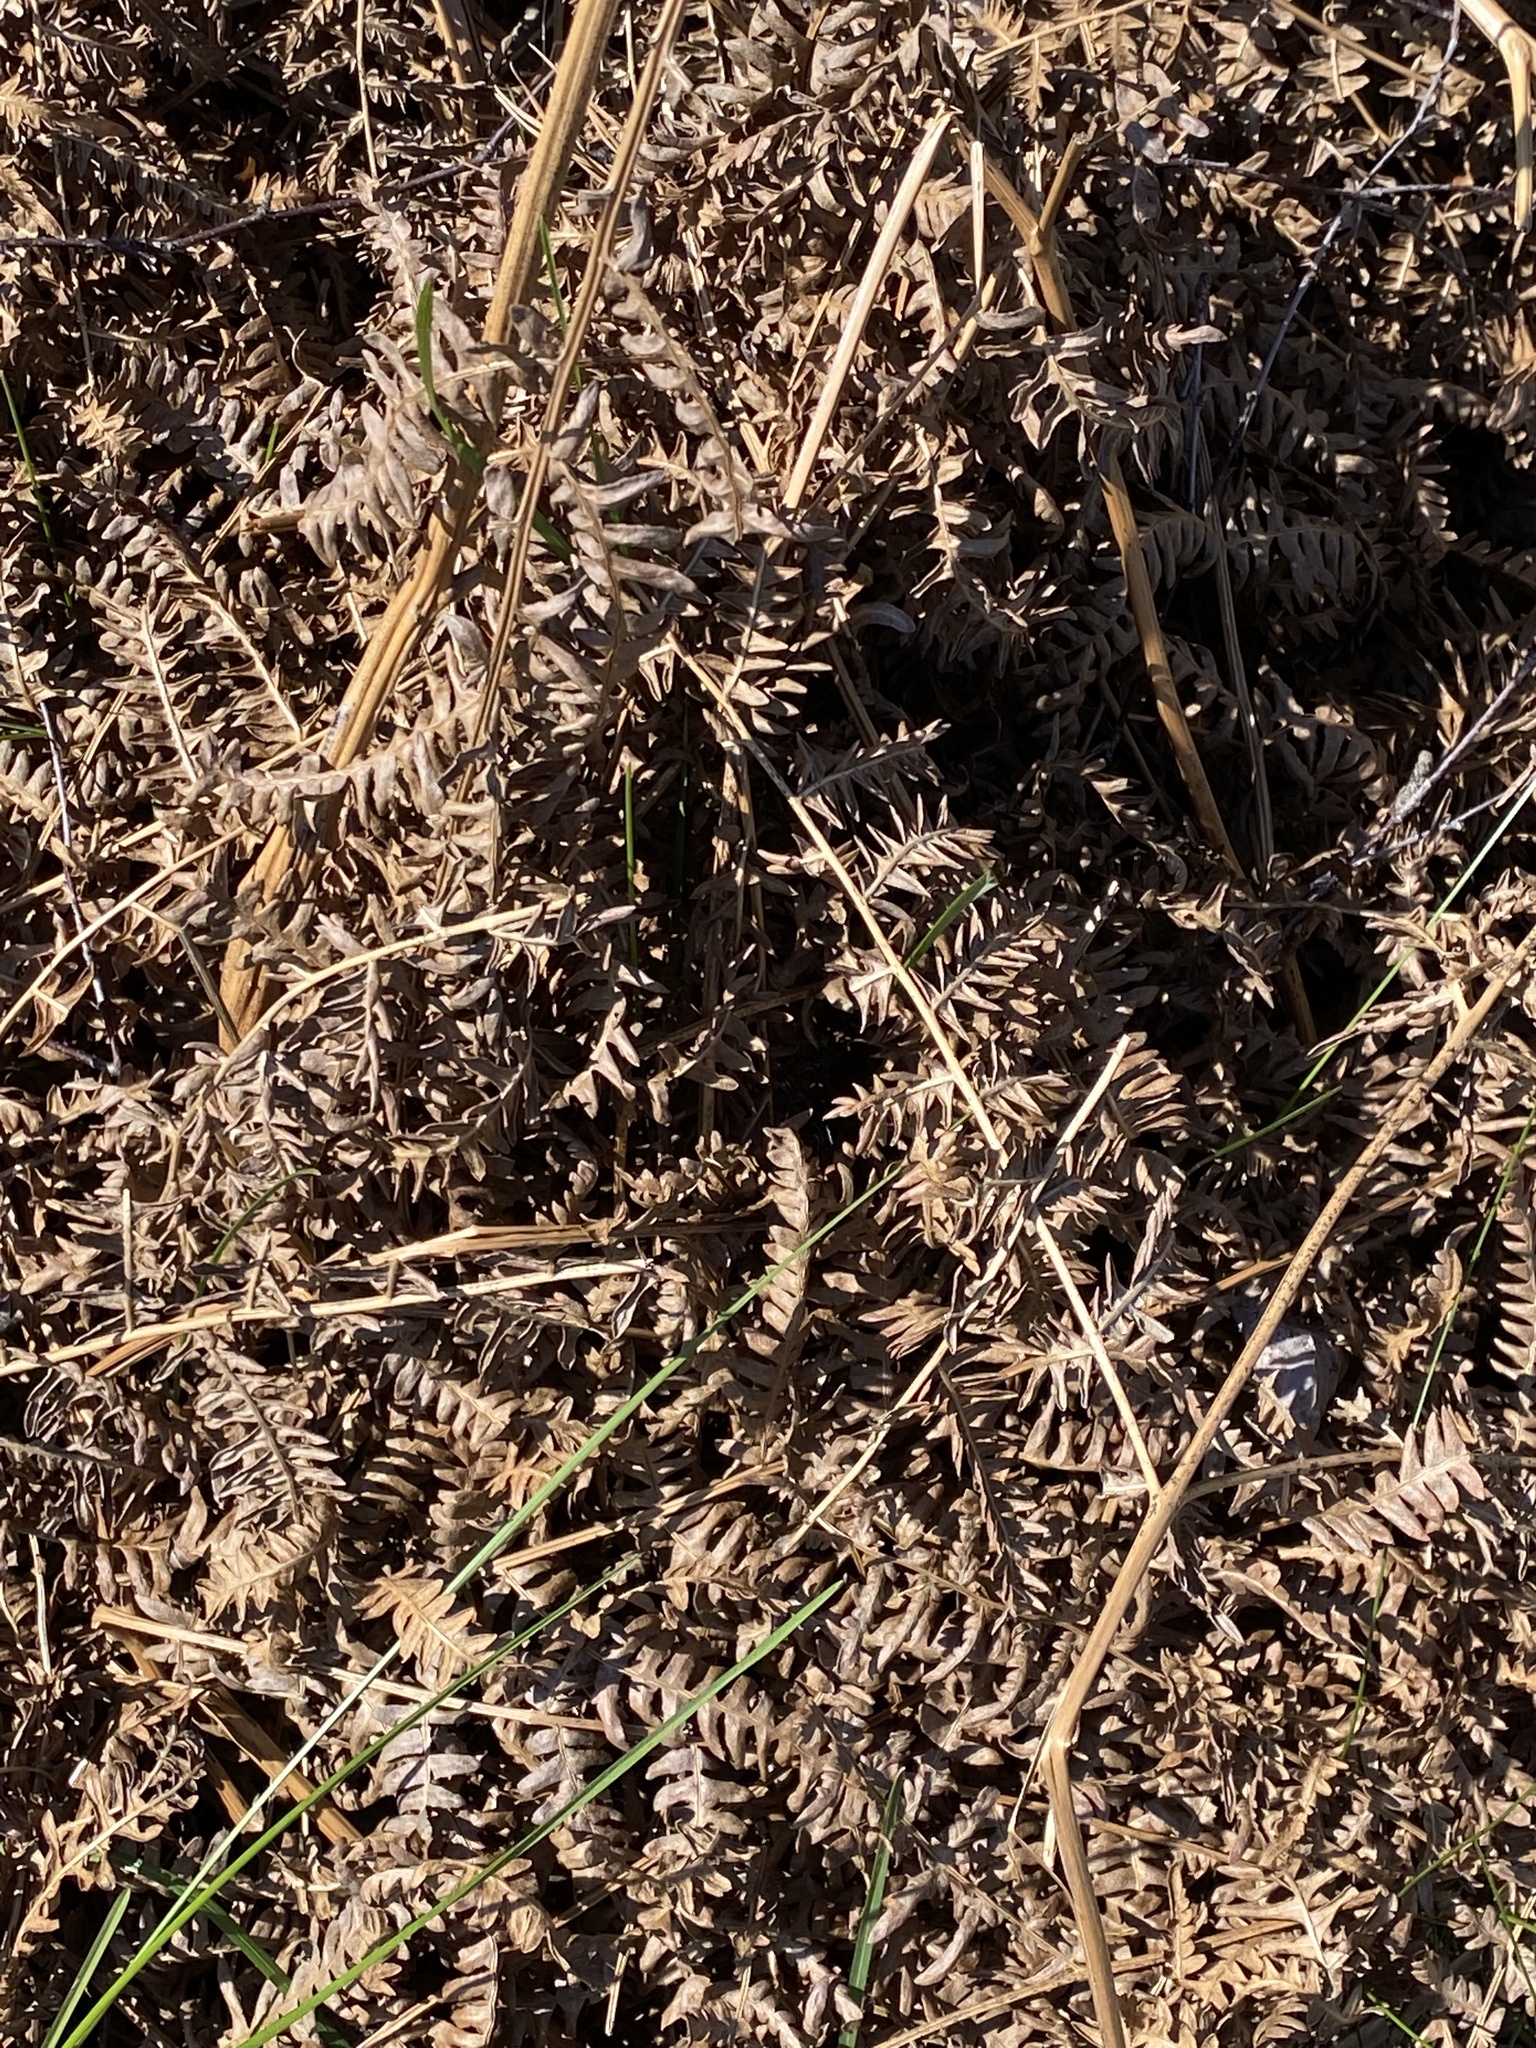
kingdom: Plantae
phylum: Tracheophyta
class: Polypodiopsida
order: Polypodiales
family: Dennstaedtiaceae
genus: Pteridium
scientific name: Pteridium aquilinum
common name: Bracken
